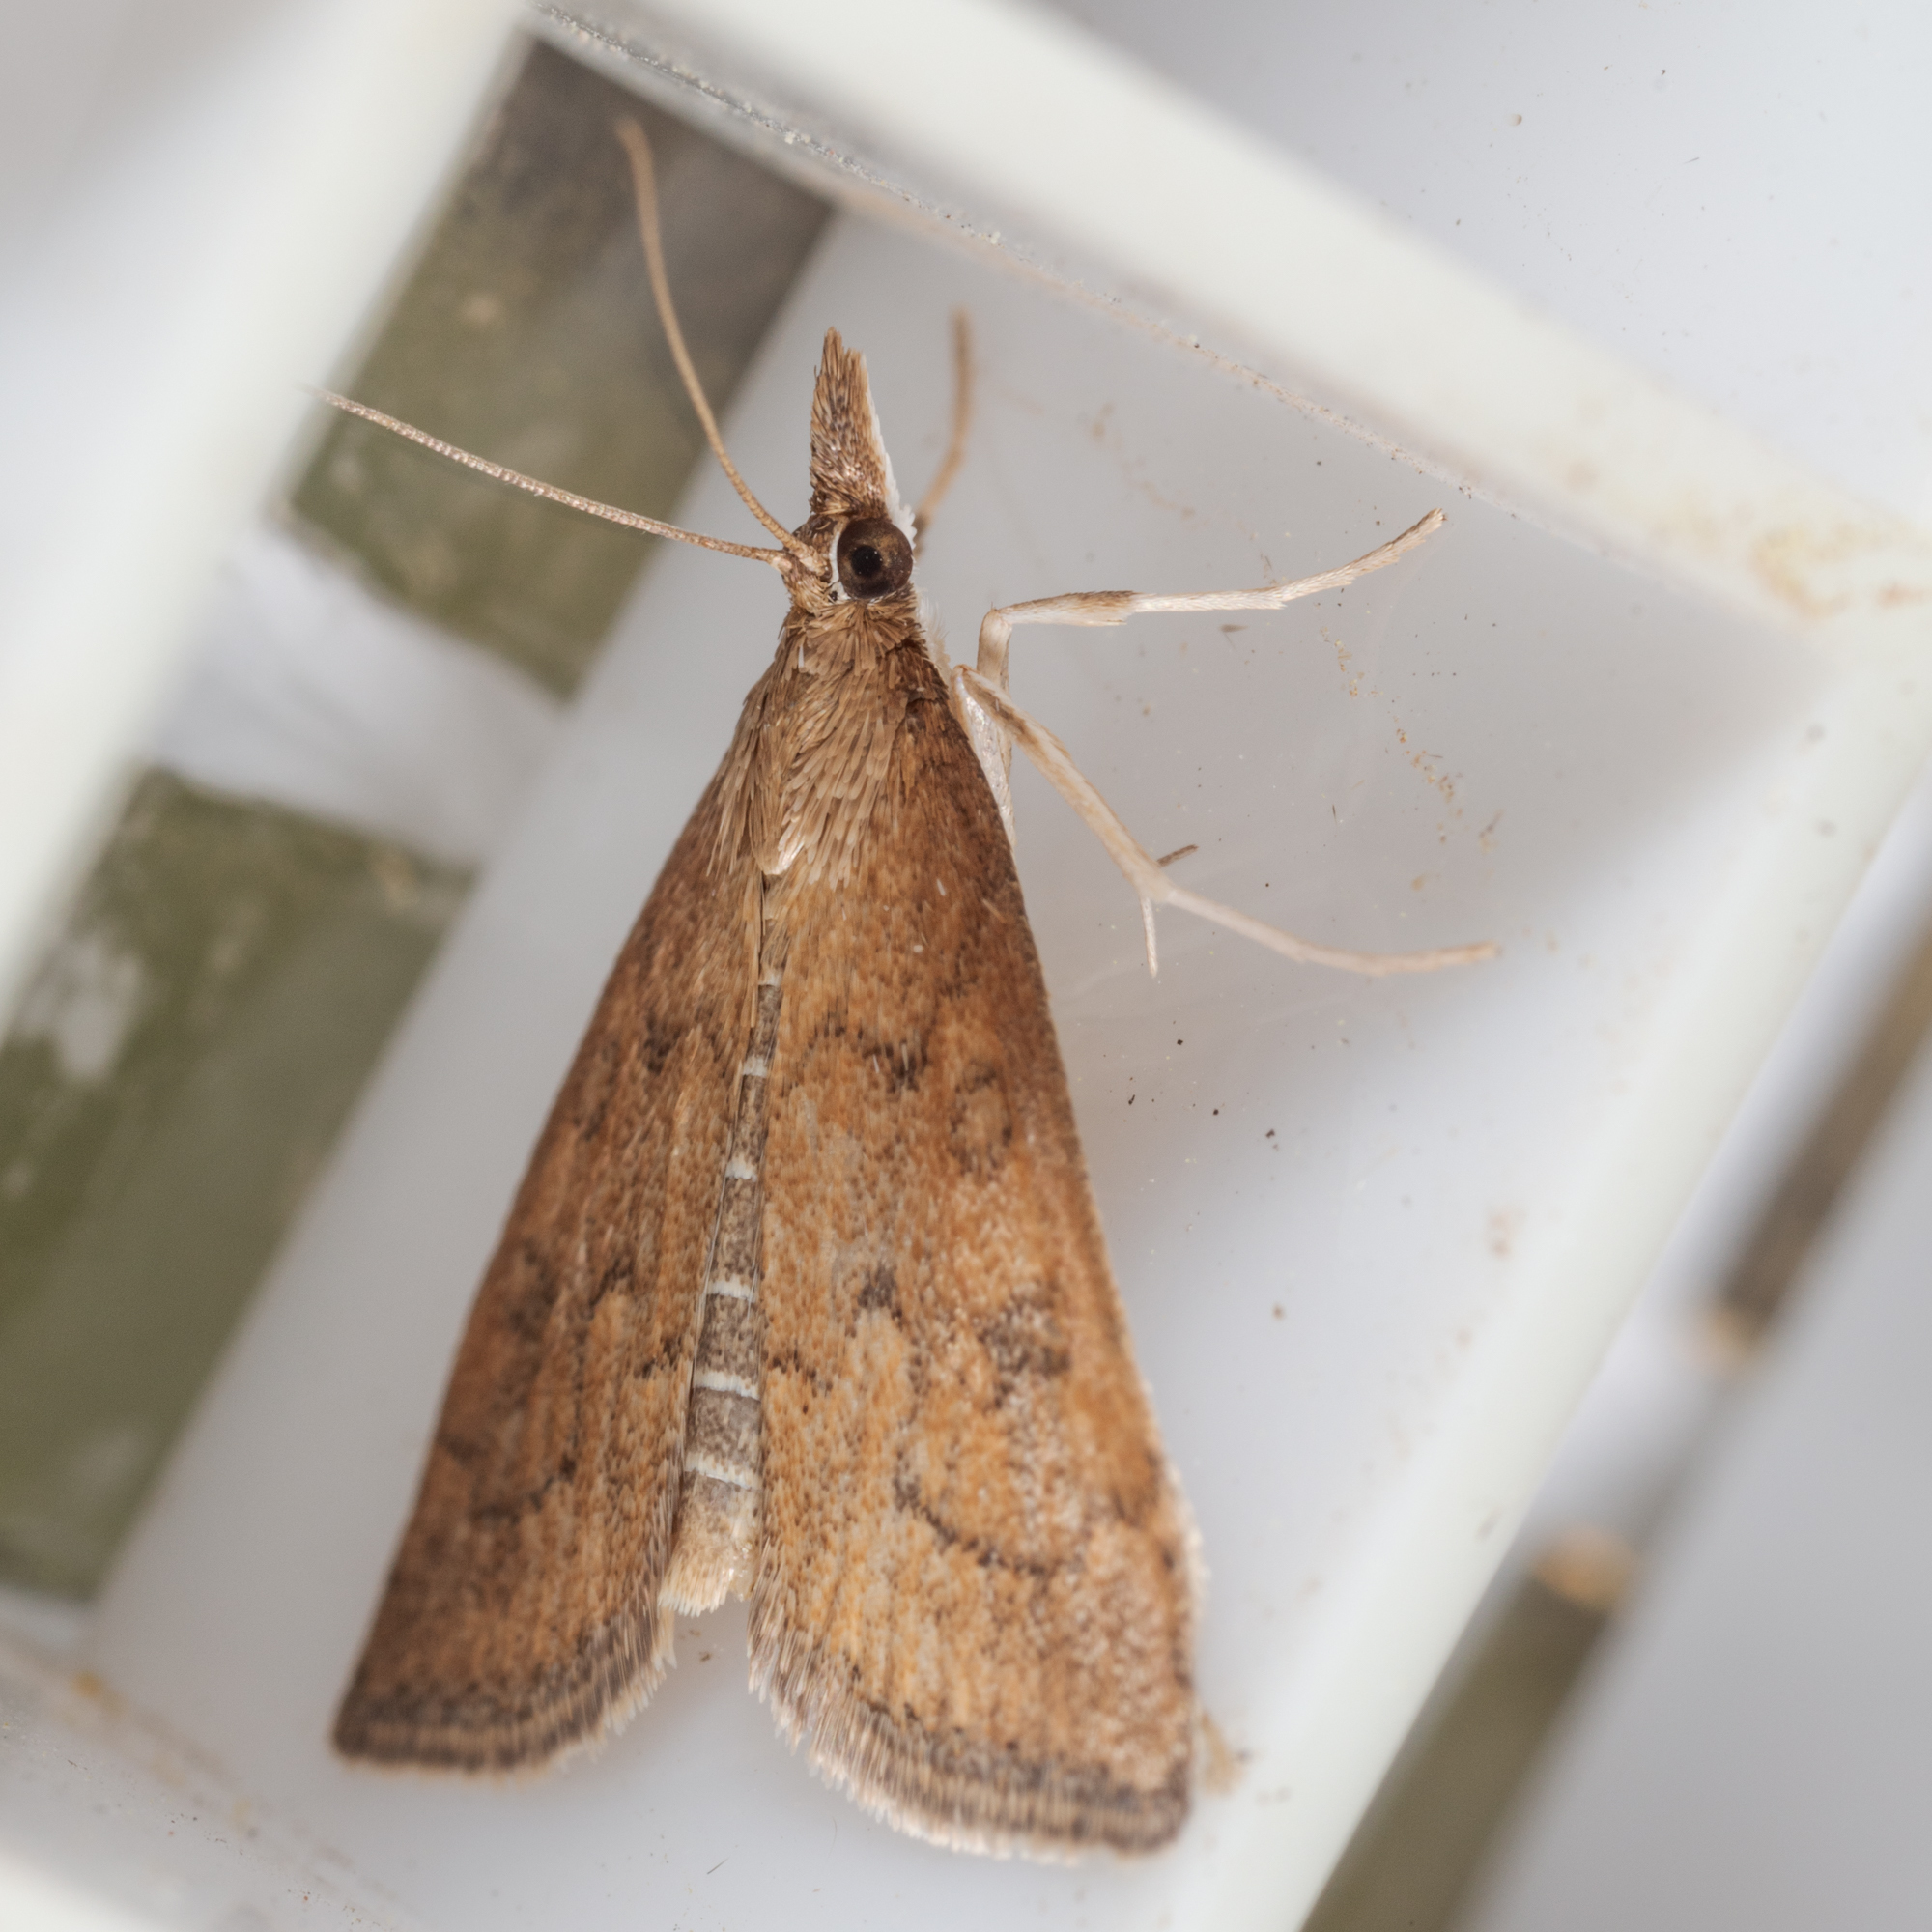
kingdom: Animalia
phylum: Arthropoda
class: Insecta
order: Lepidoptera
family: Crambidae
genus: Udea
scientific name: Udea rubigalis
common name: Celery leaftier moth
